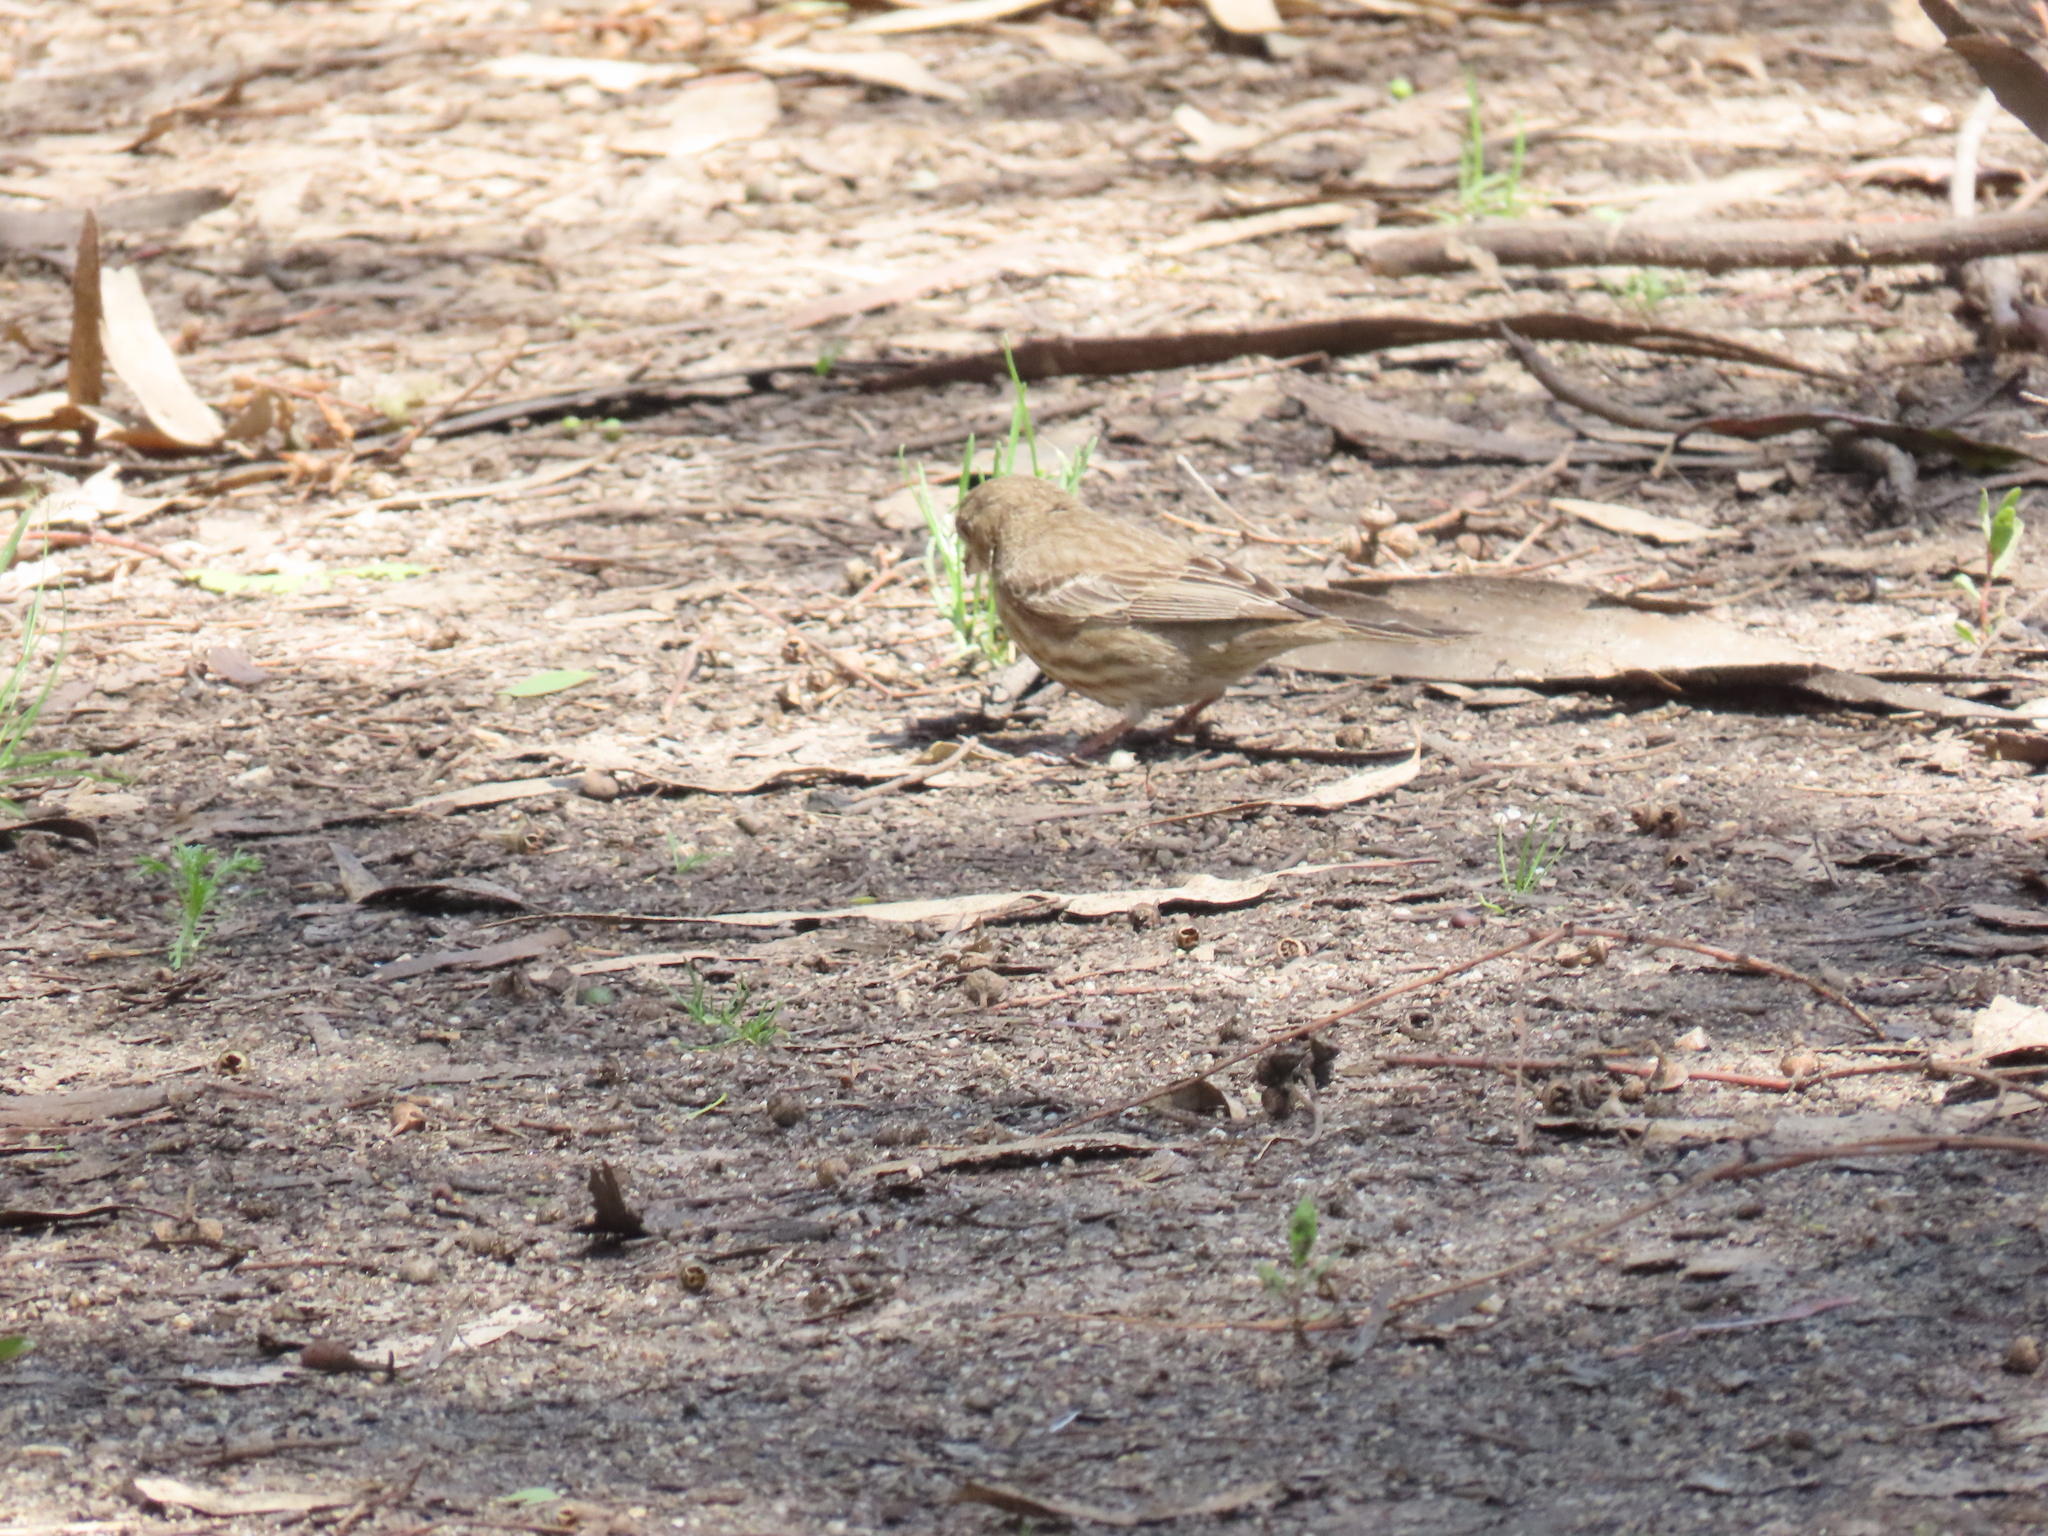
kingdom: Animalia
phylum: Chordata
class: Aves
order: Passeriformes
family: Fringillidae
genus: Haemorhous
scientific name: Haemorhous mexicanus
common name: House finch
